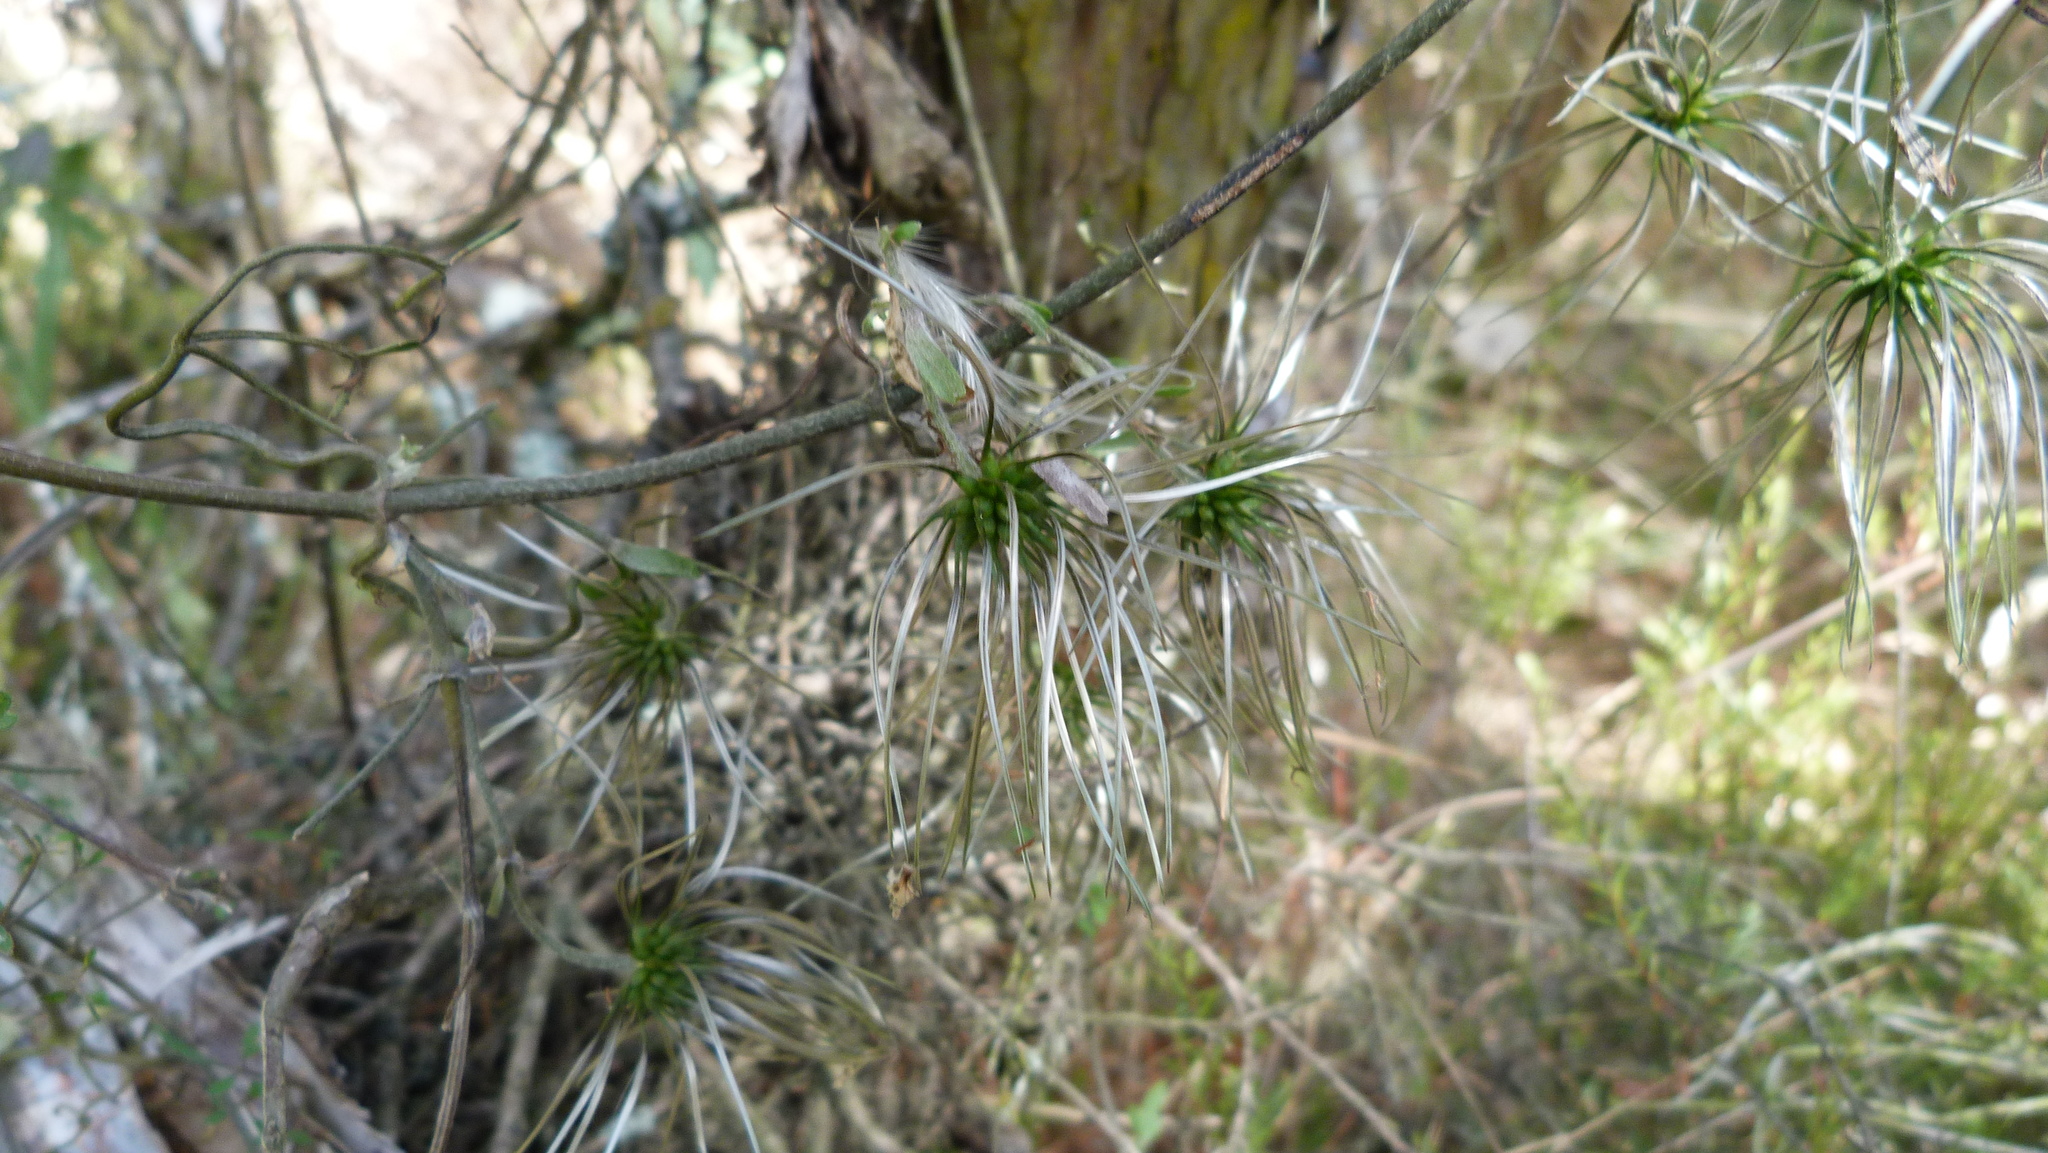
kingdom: Plantae
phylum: Tracheophyta
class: Magnoliopsida
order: Ranunculales
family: Ranunculaceae
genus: Clematis
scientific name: Clematis marata
